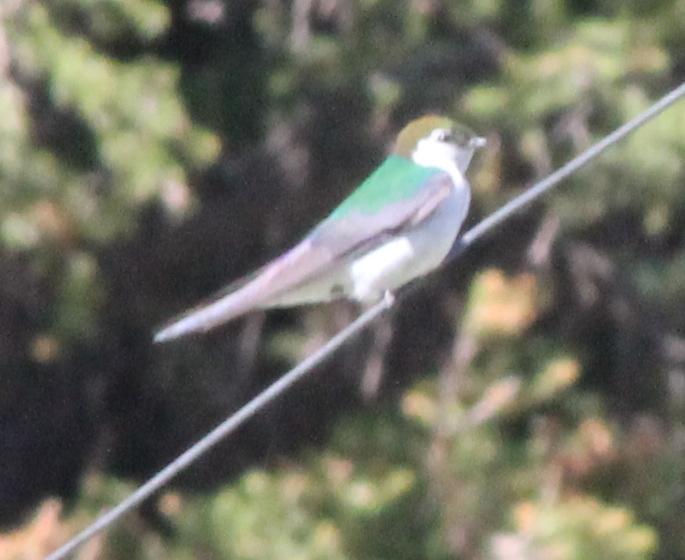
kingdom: Animalia
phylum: Chordata
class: Aves
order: Passeriformes
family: Hirundinidae
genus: Tachycineta
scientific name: Tachycineta thalassina
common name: Violet-green swallow
